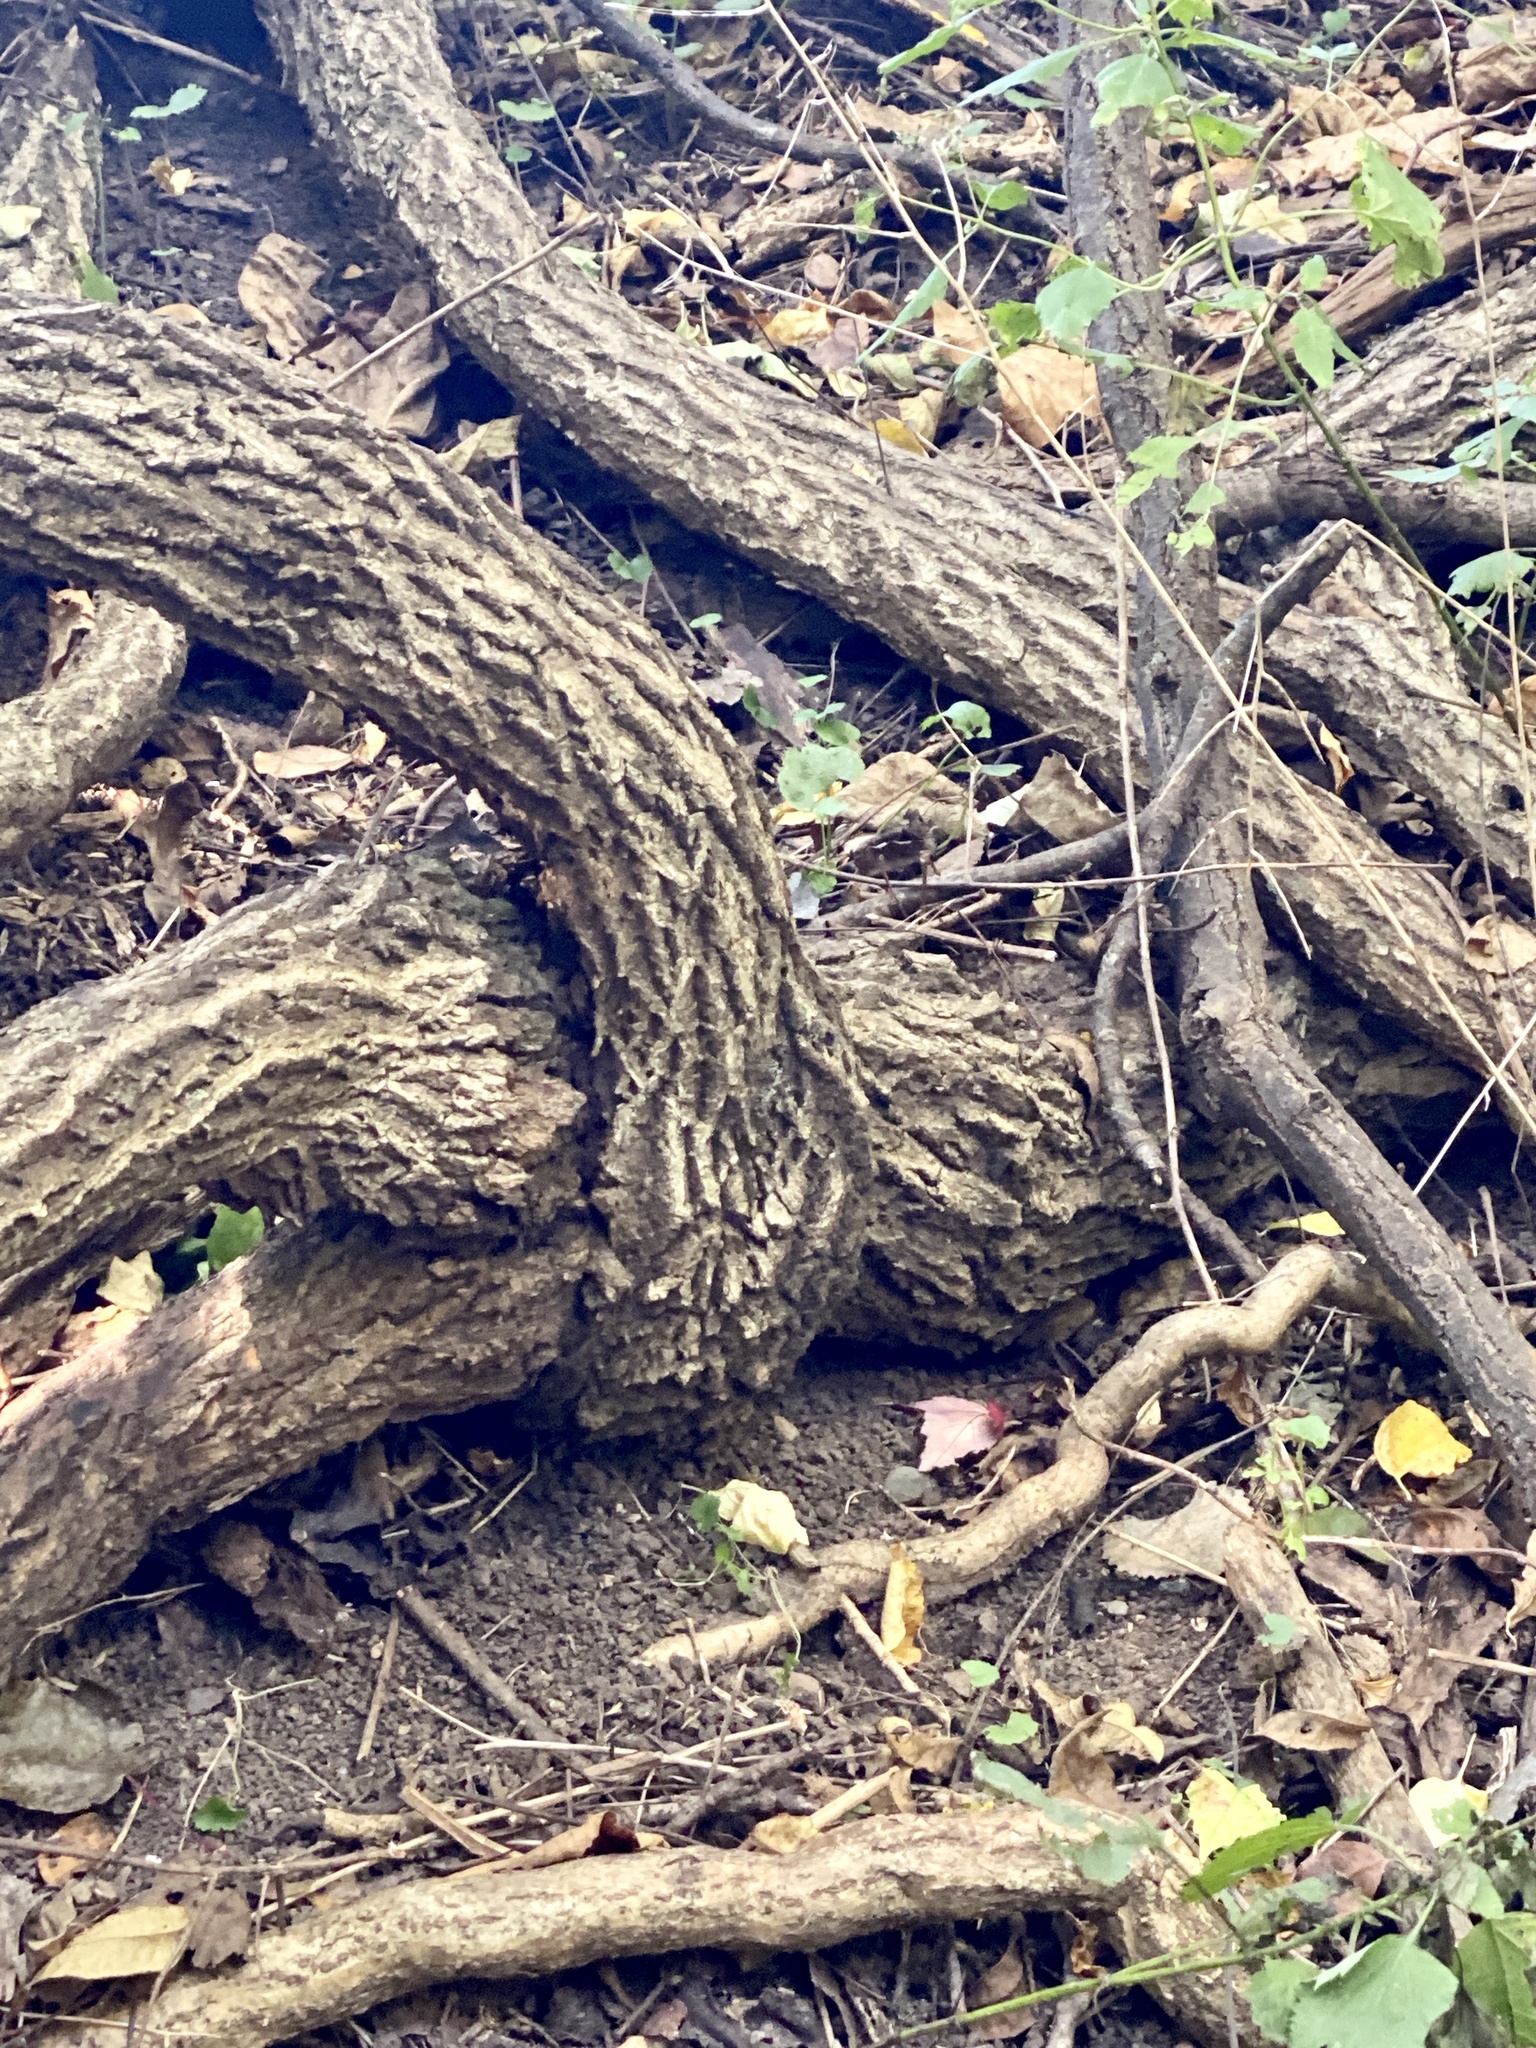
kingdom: Plantae
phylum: Tracheophyta
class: Magnoliopsida
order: Celastrales
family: Celastraceae
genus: Celastrus
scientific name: Celastrus orbiculatus
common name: Oriental bittersweet
